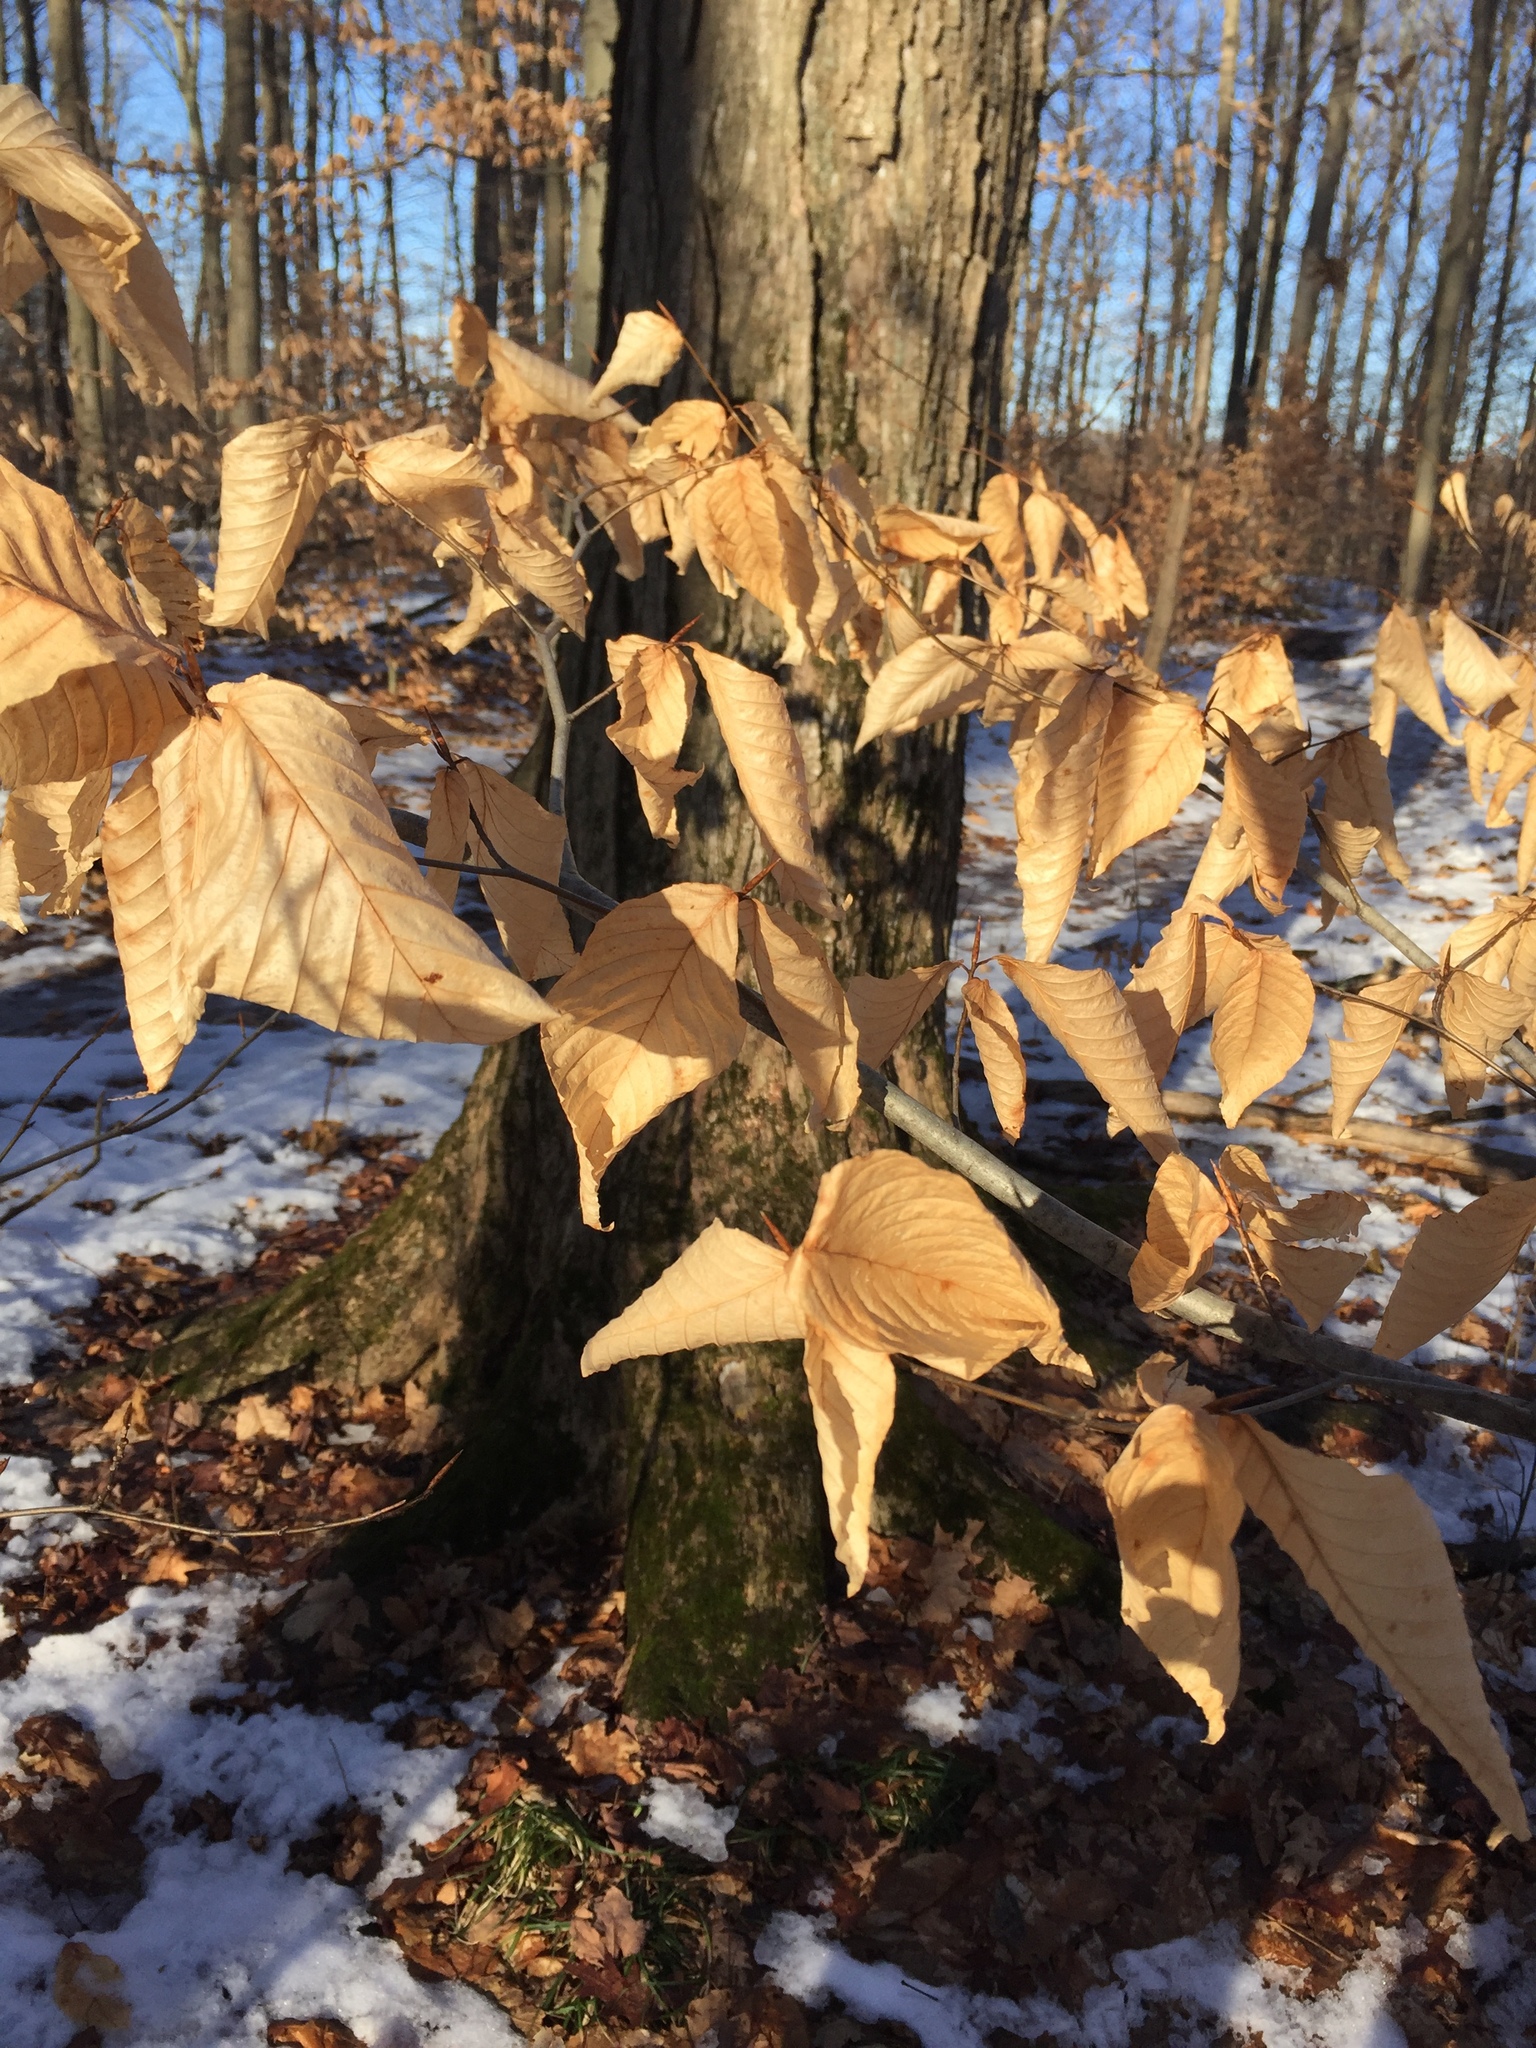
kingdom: Plantae
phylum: Tracheophyta
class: Magnoliopsida
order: Fagales
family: Fagaceae
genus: Fagus
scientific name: Fagus grandifolia
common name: American beech
